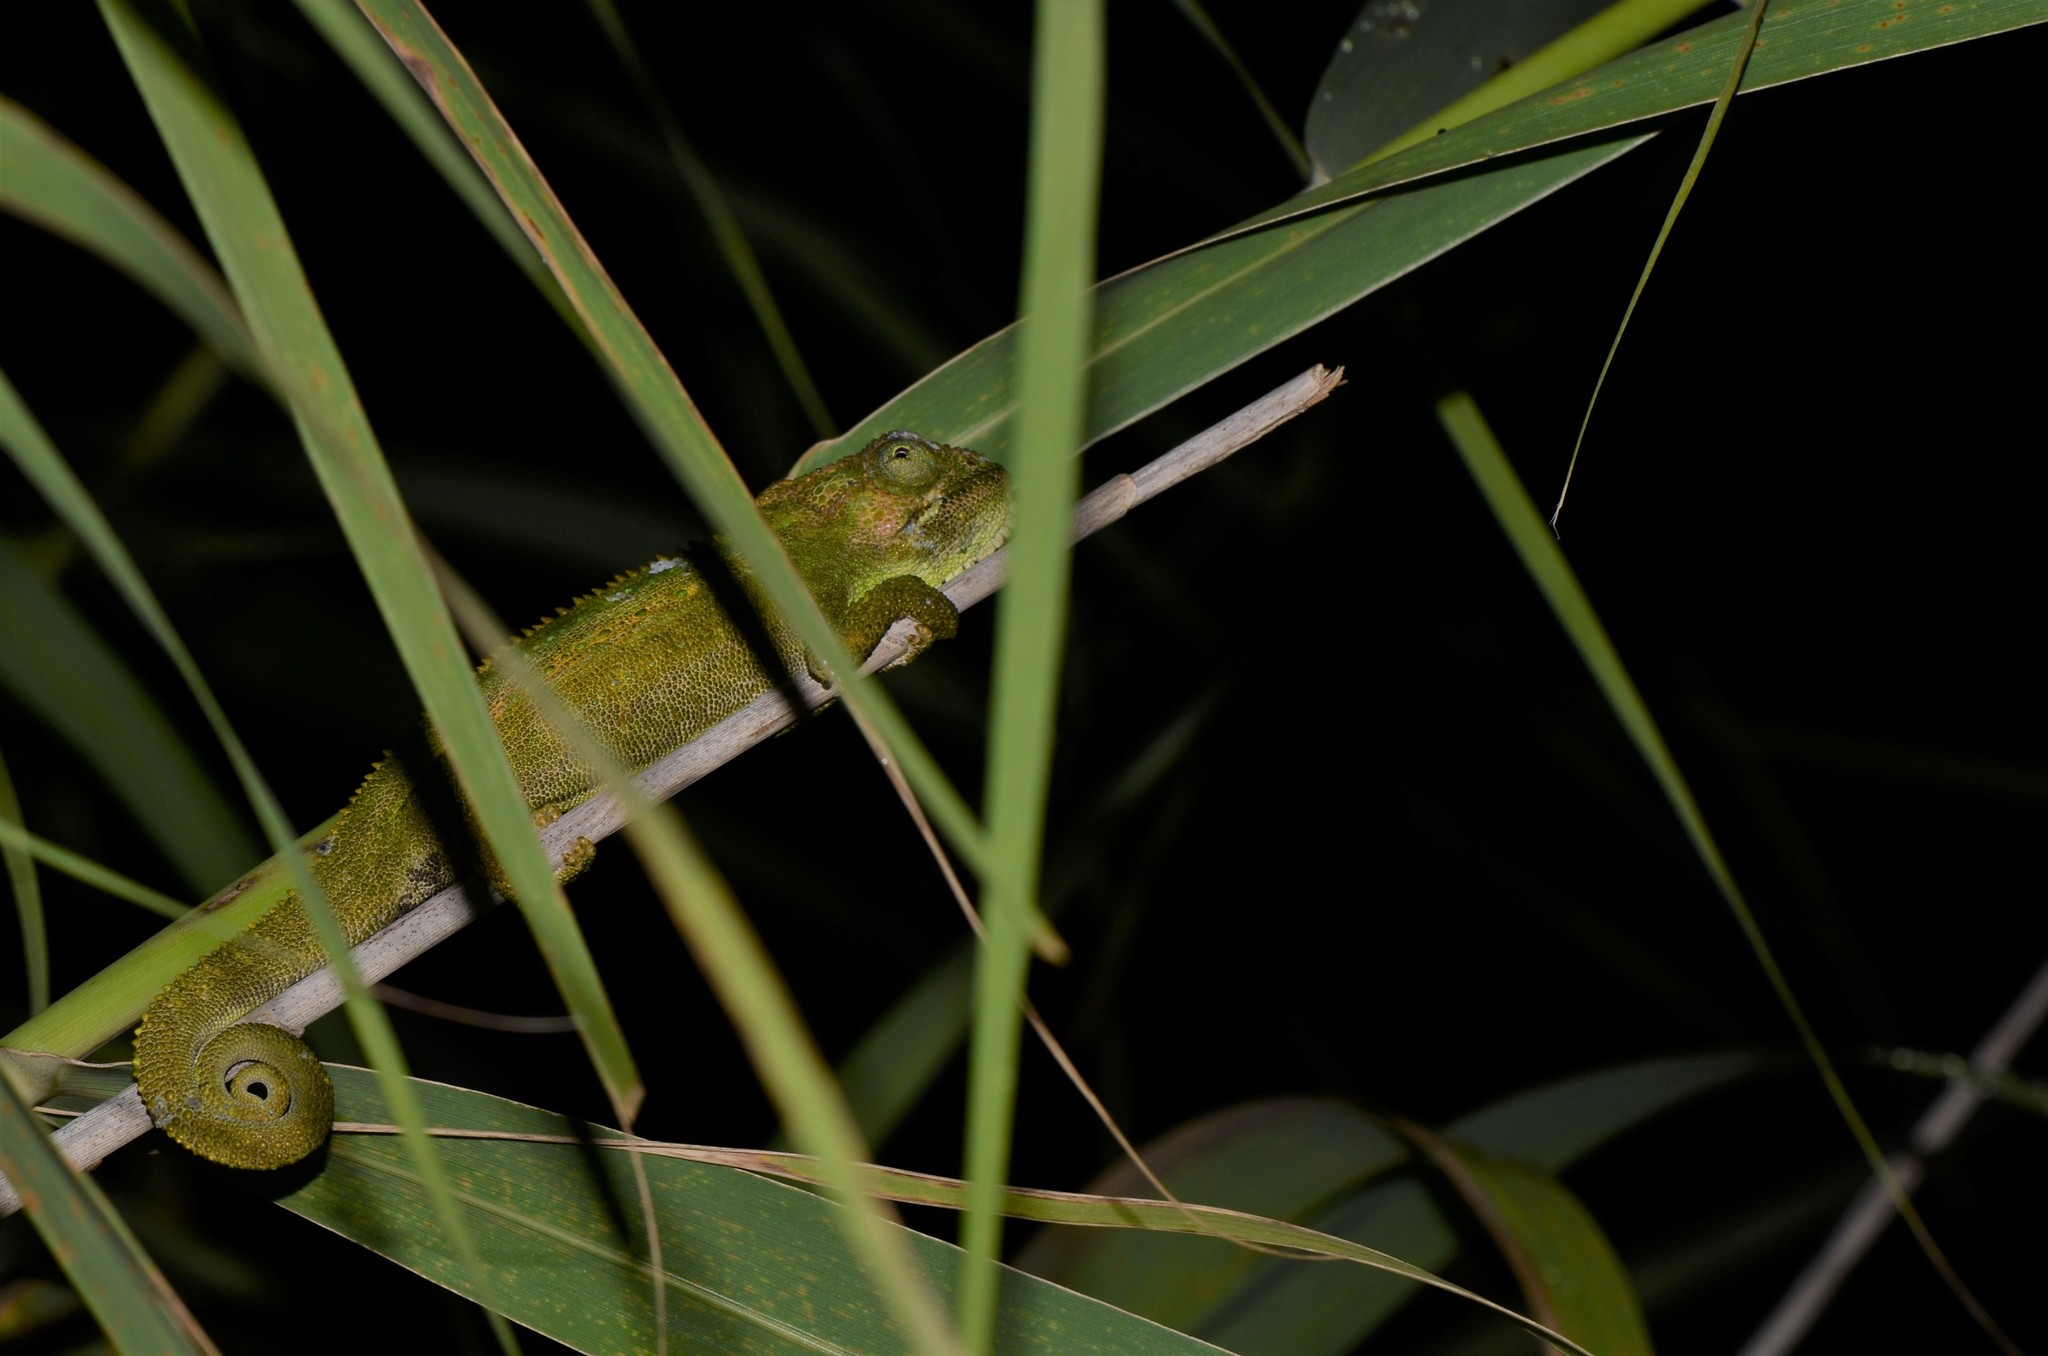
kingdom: Animalia
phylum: Chordata
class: Squamata
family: Chamaeleonidae
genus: Bradypodion
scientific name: Bradypodion pumilum
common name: Cape dwarf chameleon
